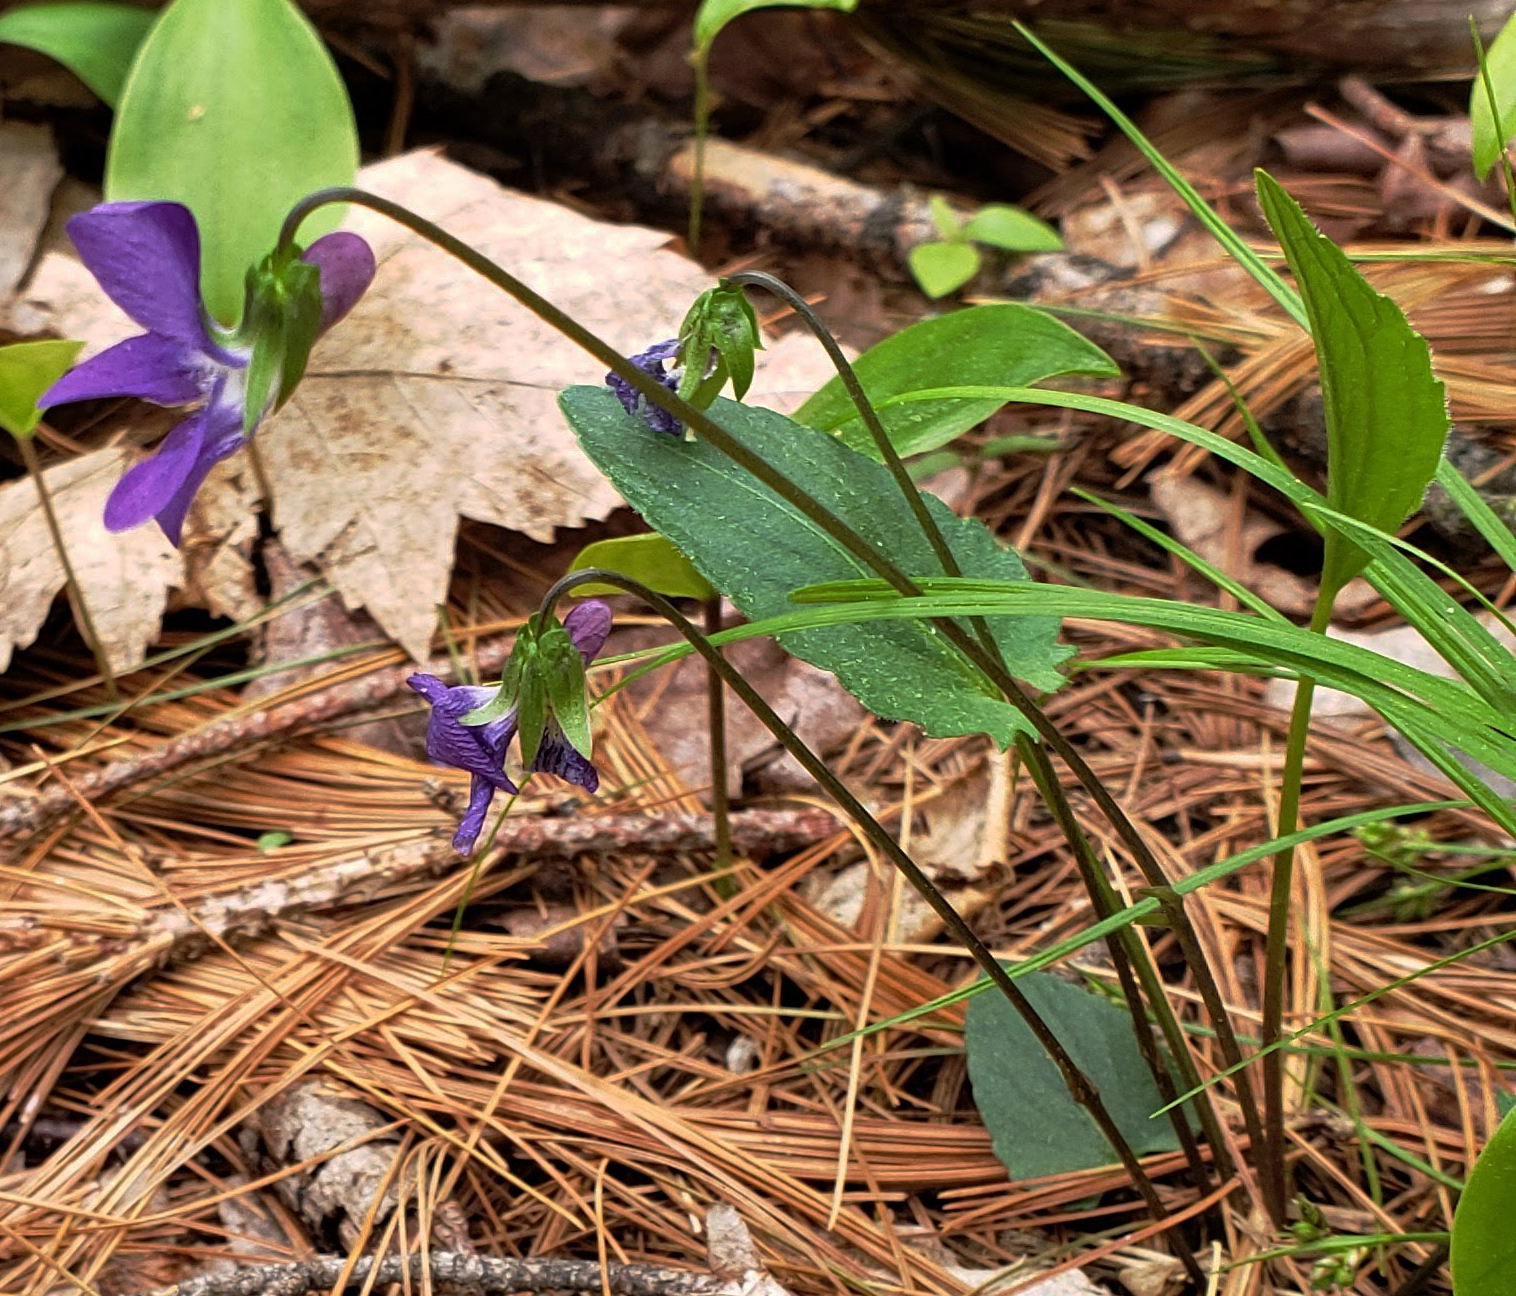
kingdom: Plantae
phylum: Tracheophyta
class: Magnoliopsida
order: Malpighiales
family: Violaceae
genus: Viola
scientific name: Viola sagittata
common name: Arrowhead violet
